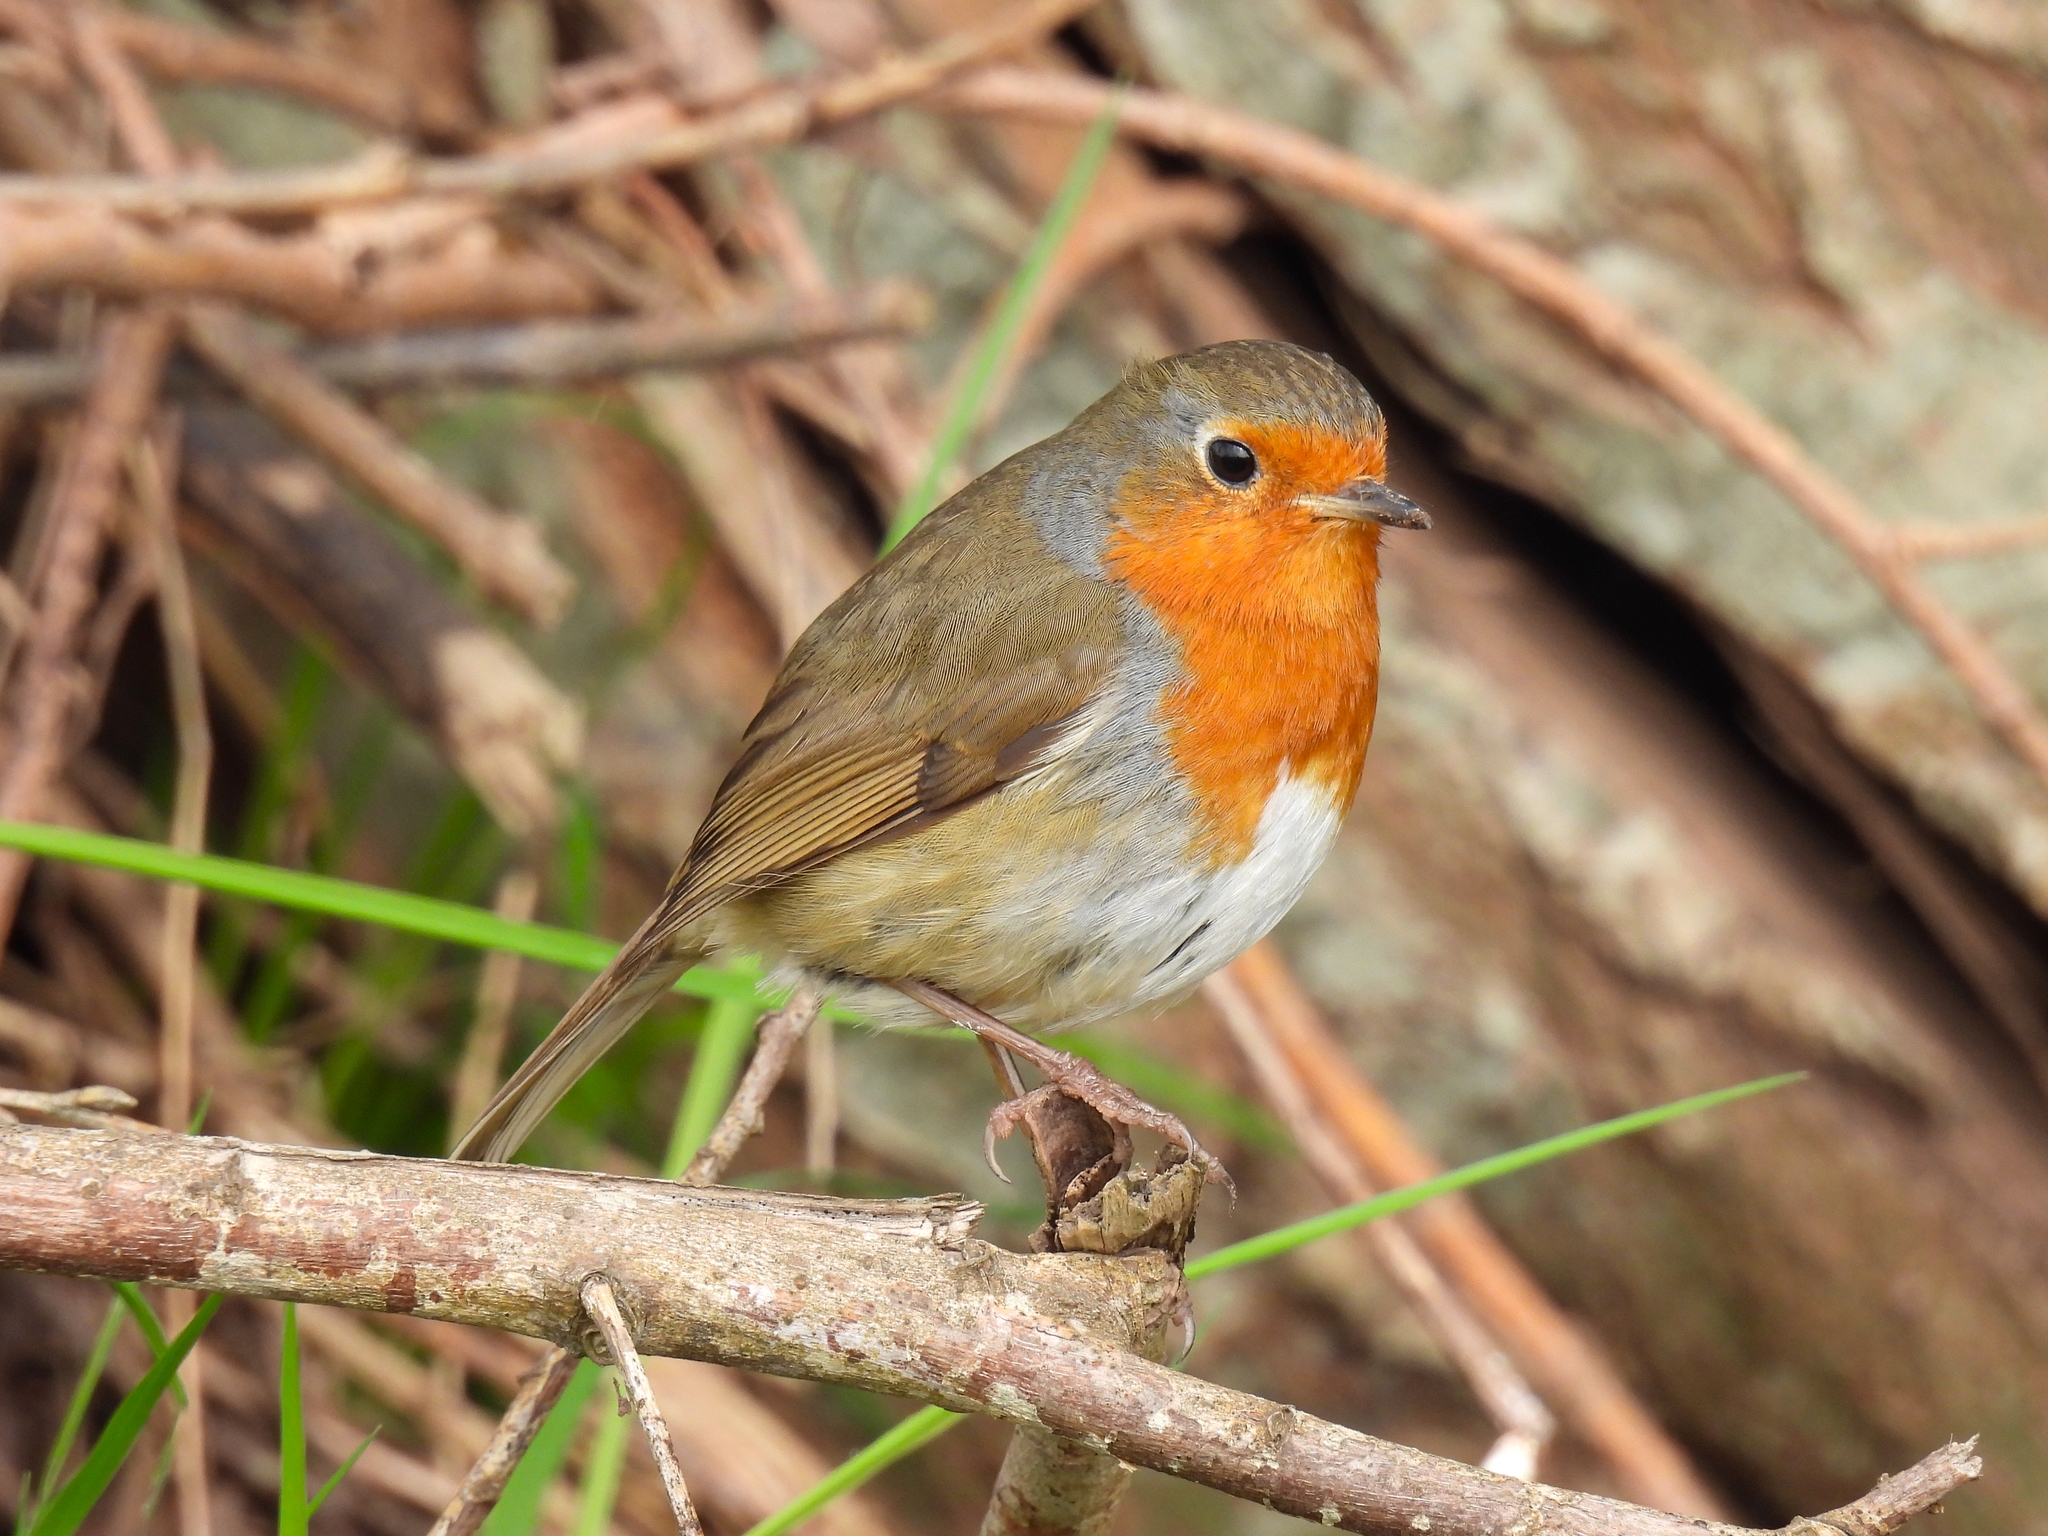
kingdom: Animalia
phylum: Chordata
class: Aves
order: Passeriformes
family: Muscicapidae
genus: Erithacus
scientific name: Erithacus rubecula
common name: European robin
